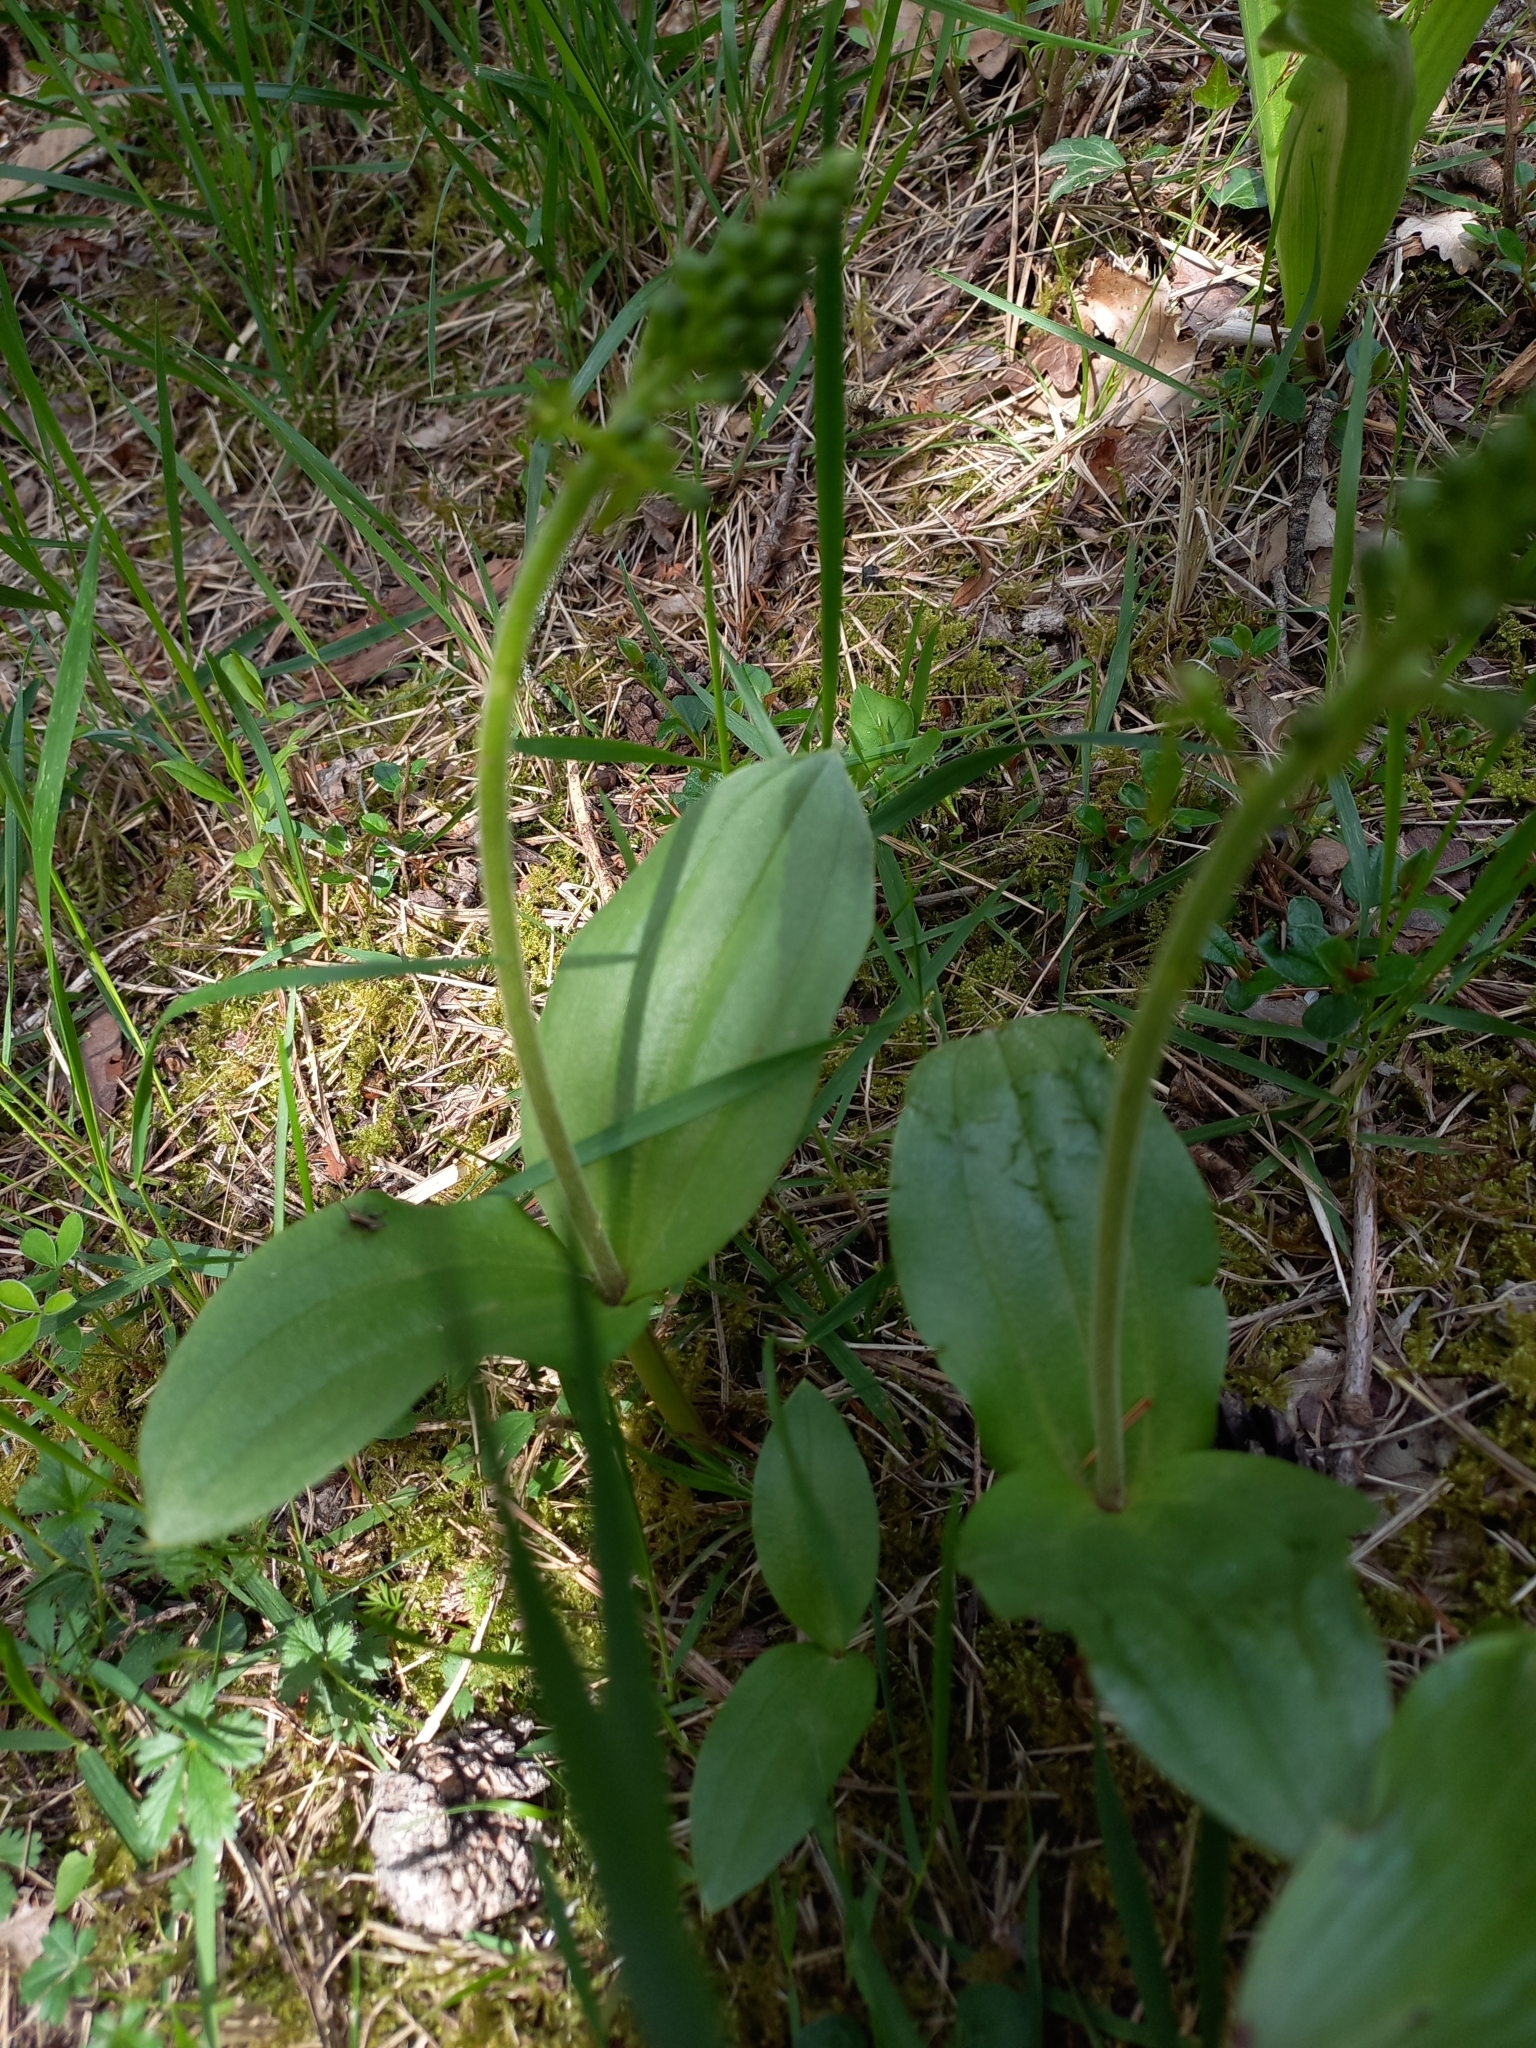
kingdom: Plantae
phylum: Tracheophyta
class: Liliopsida
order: Asparagales
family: Orchidaceae
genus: Neottia
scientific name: Neottia ovata
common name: Common twayblade
